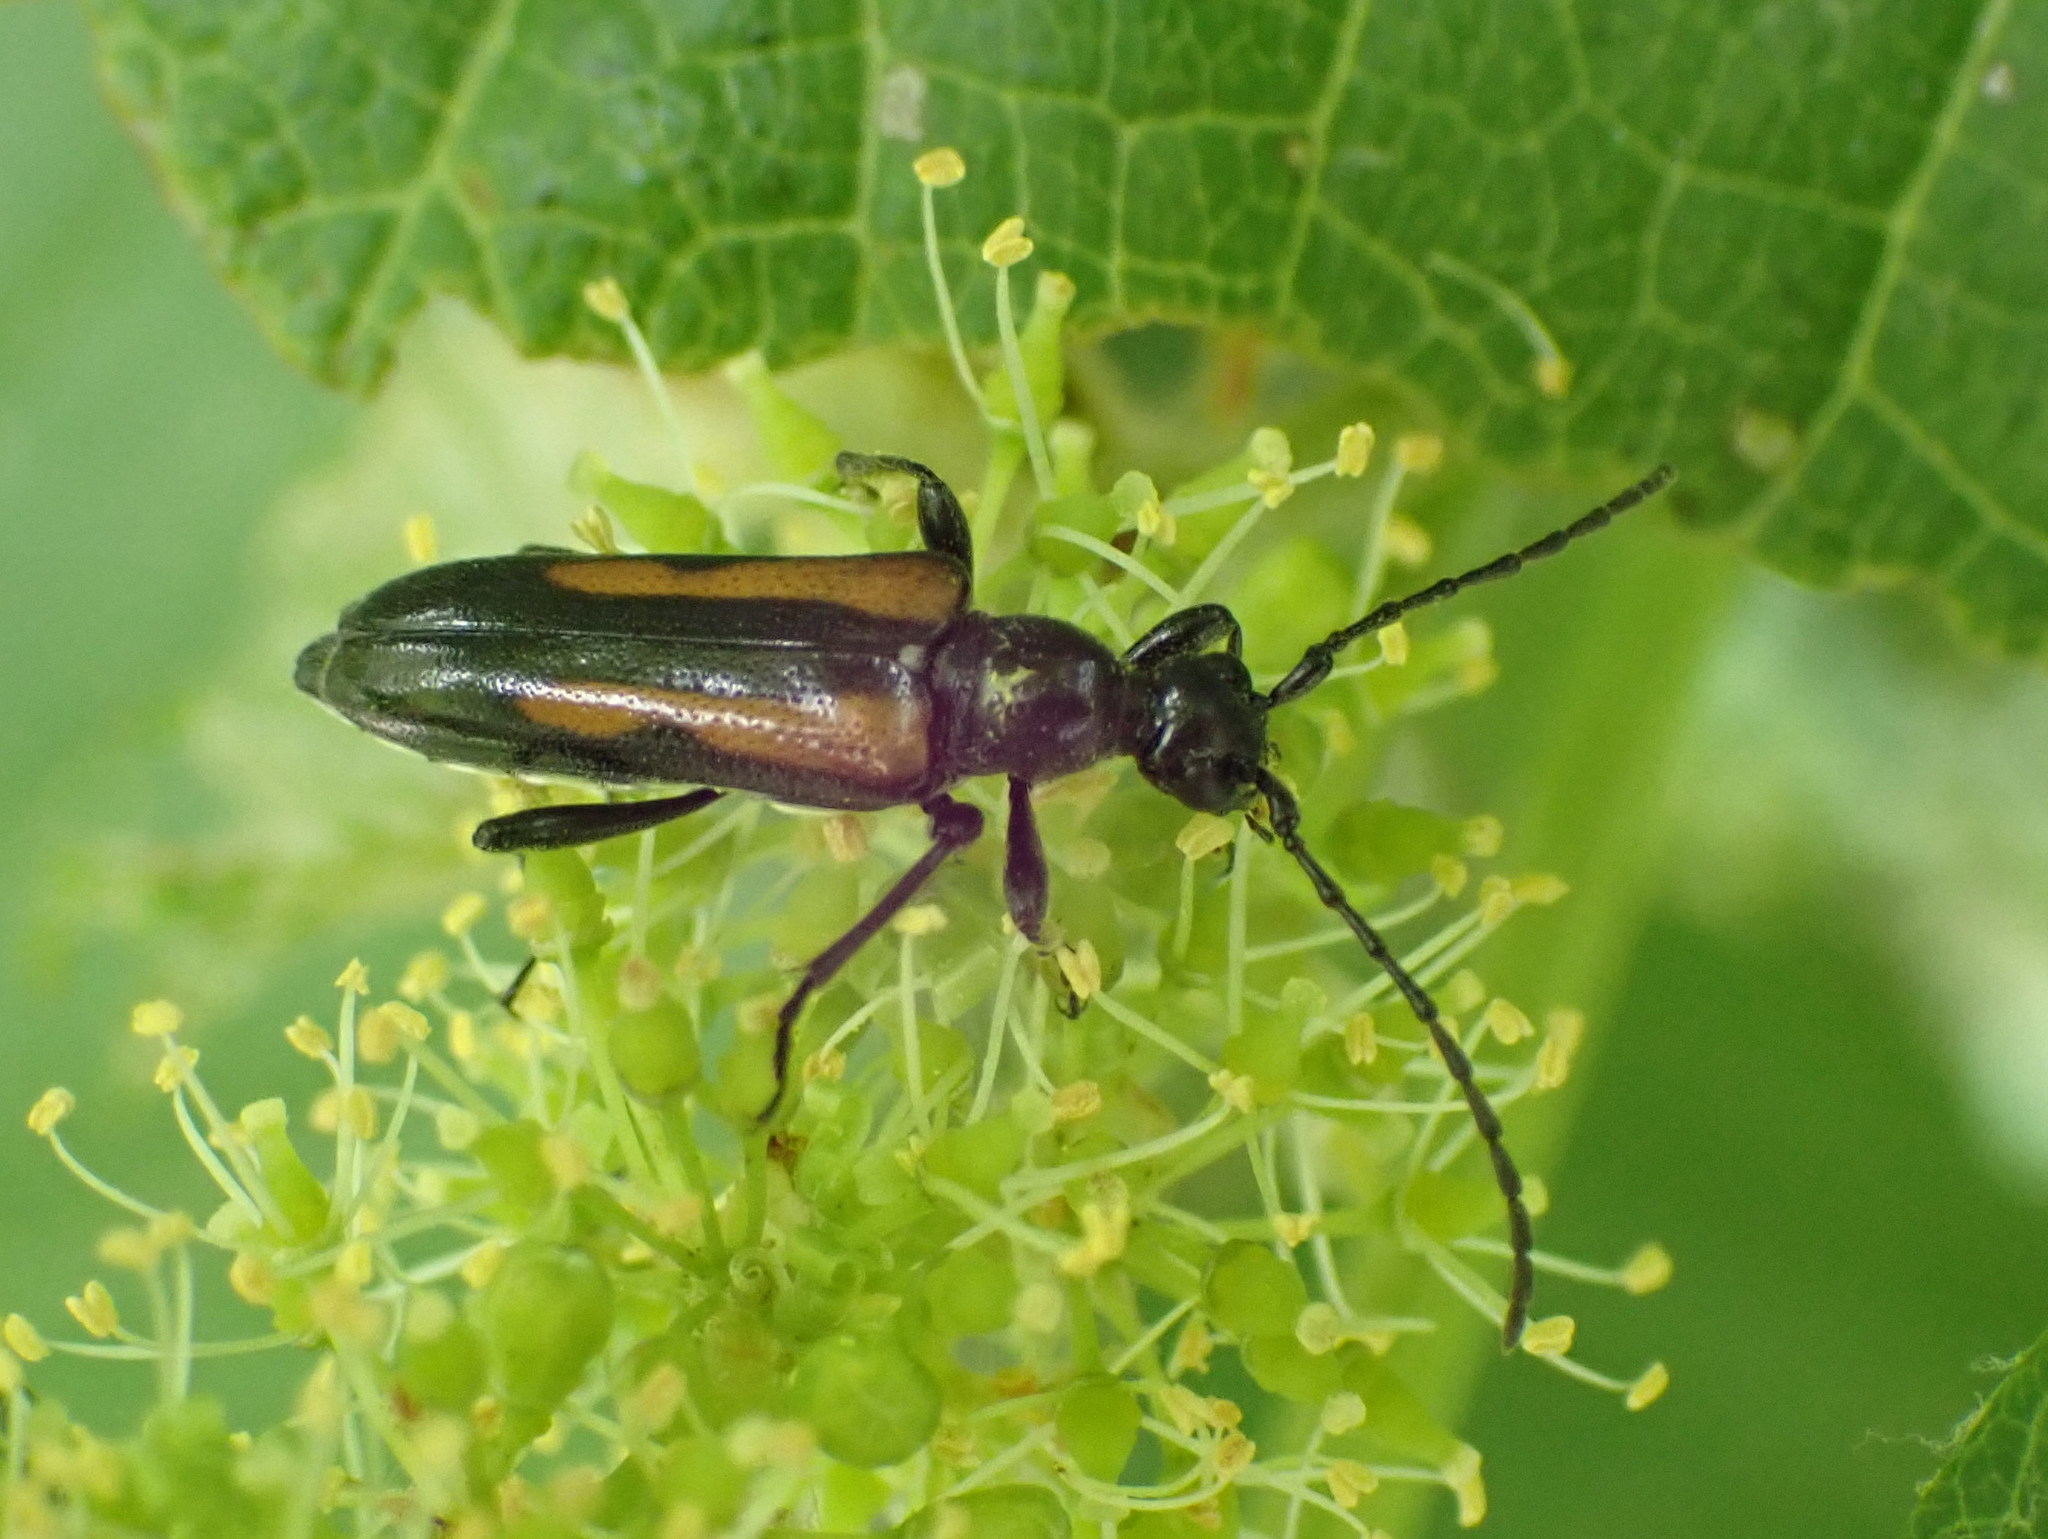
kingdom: Animalia
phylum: Arthropoda
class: Insecta
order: Coleoptera
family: Cerambycidae
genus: Strangalepta
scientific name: Strangalepta abbreviata
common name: Strangalepta flower longhorn beetle
